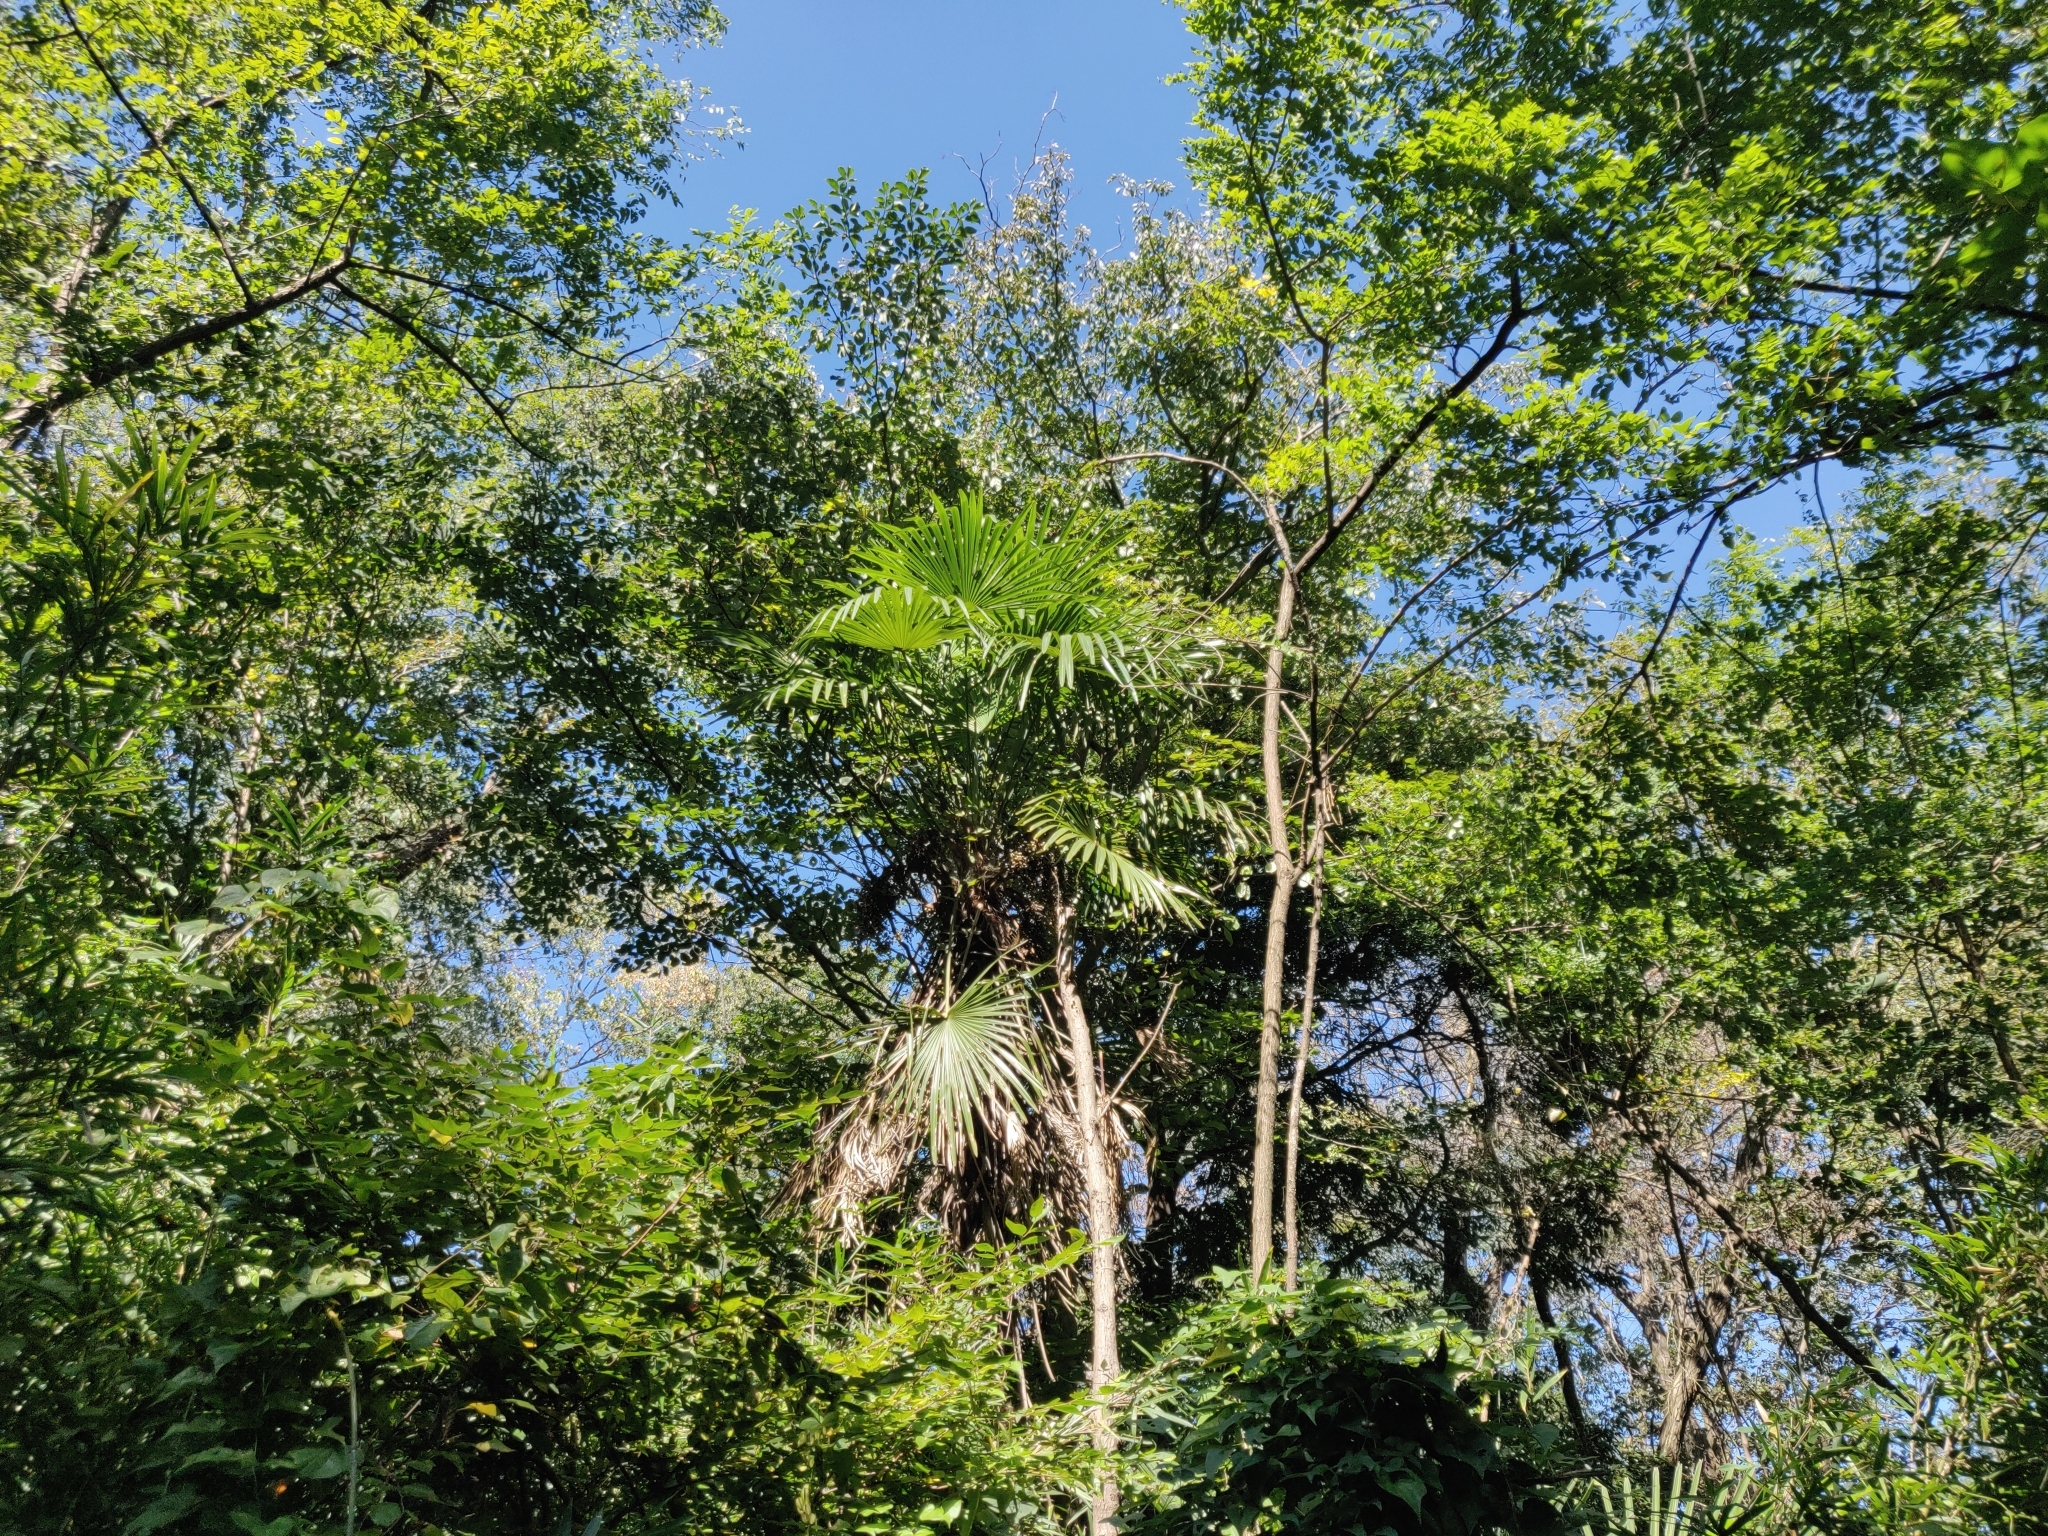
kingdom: Plantae
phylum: Tracheophyta
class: Liliopsida
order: Arecales
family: Arecaceae
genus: Trachycarpus
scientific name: Trachycarpus fortunei
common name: Chusan palm
